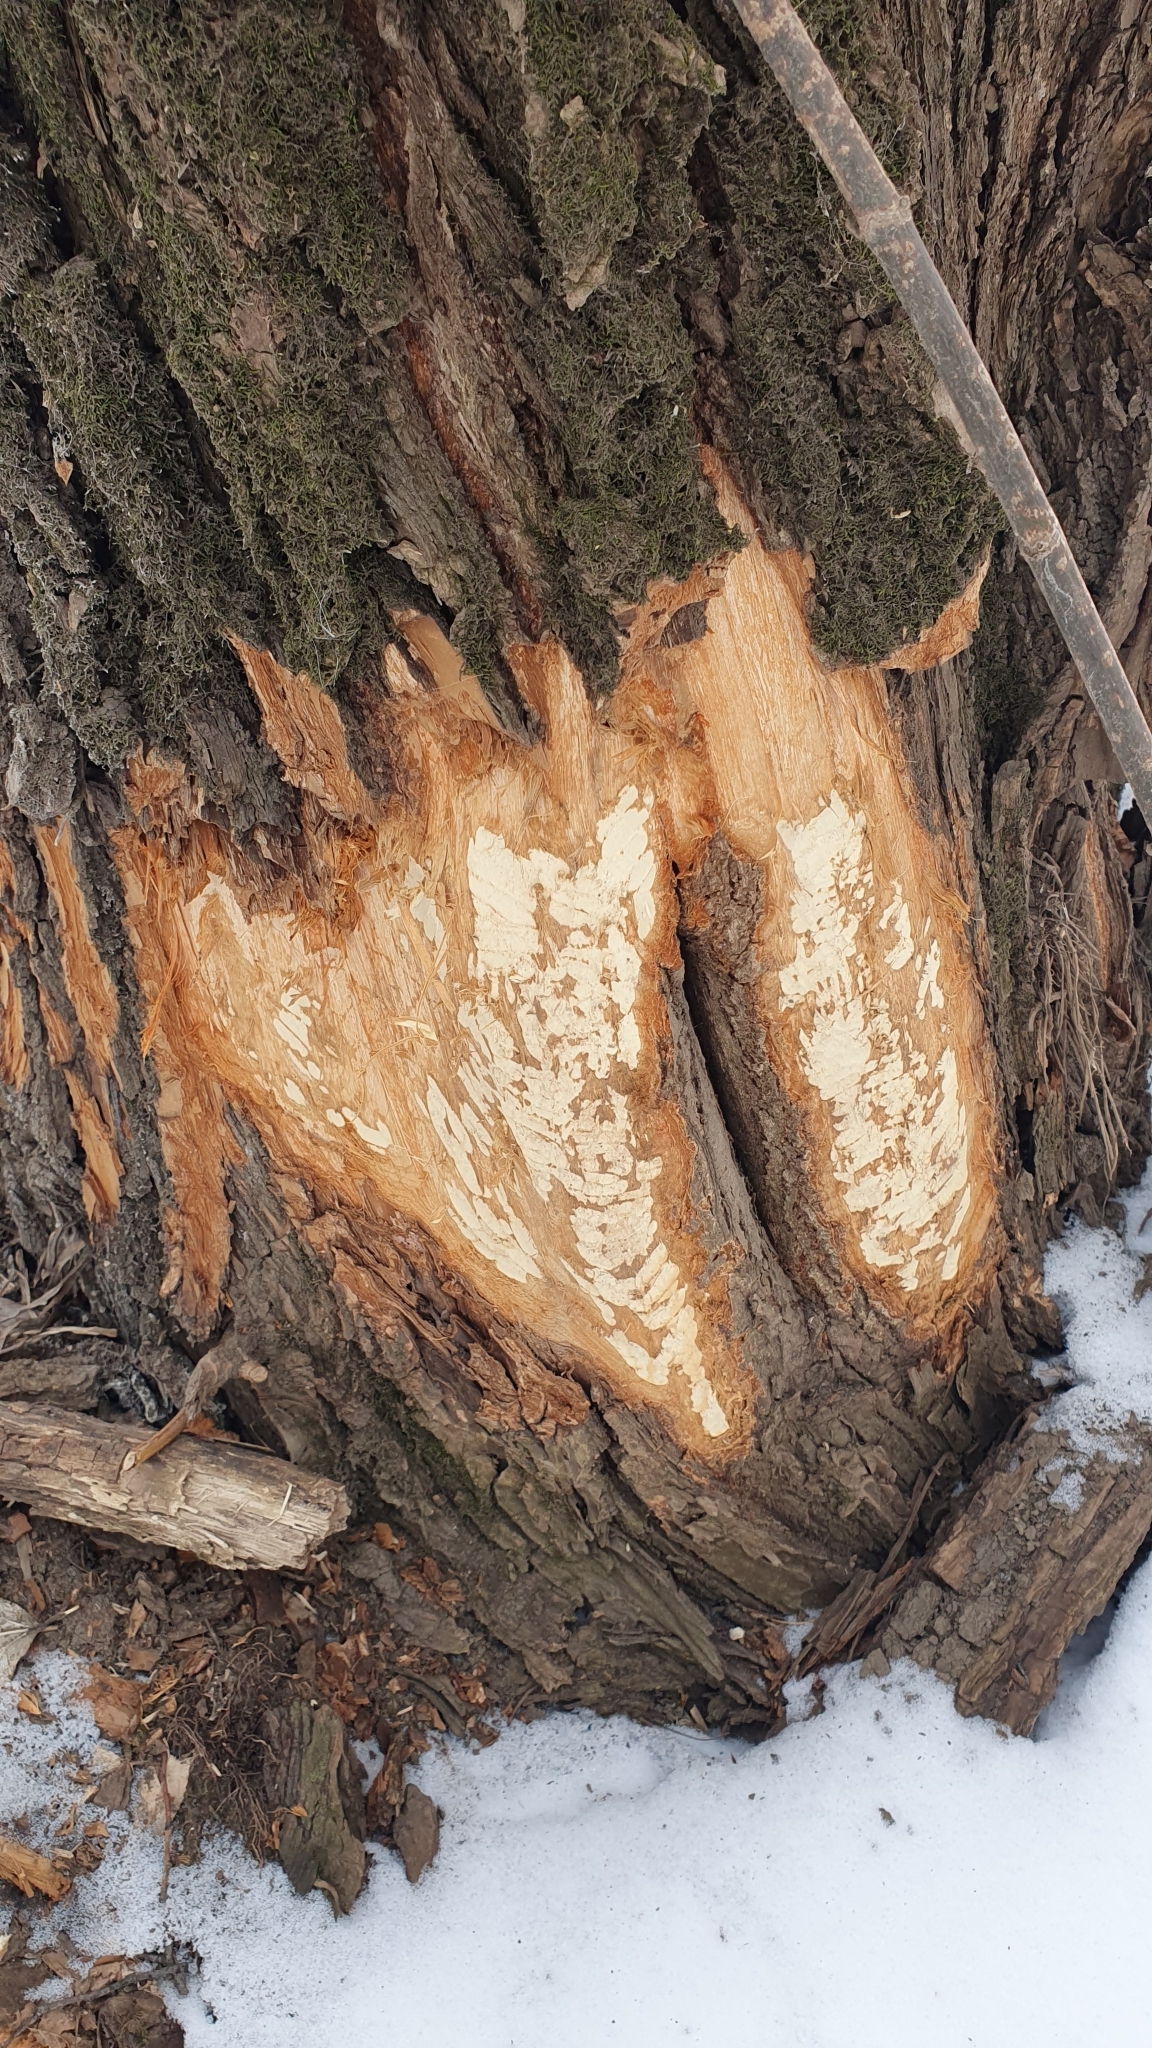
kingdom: Animalia
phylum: Chordata
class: Mammalia
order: Rodentia
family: Castoridae
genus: Castor
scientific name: Castor fiber
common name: Eurasian beaver
